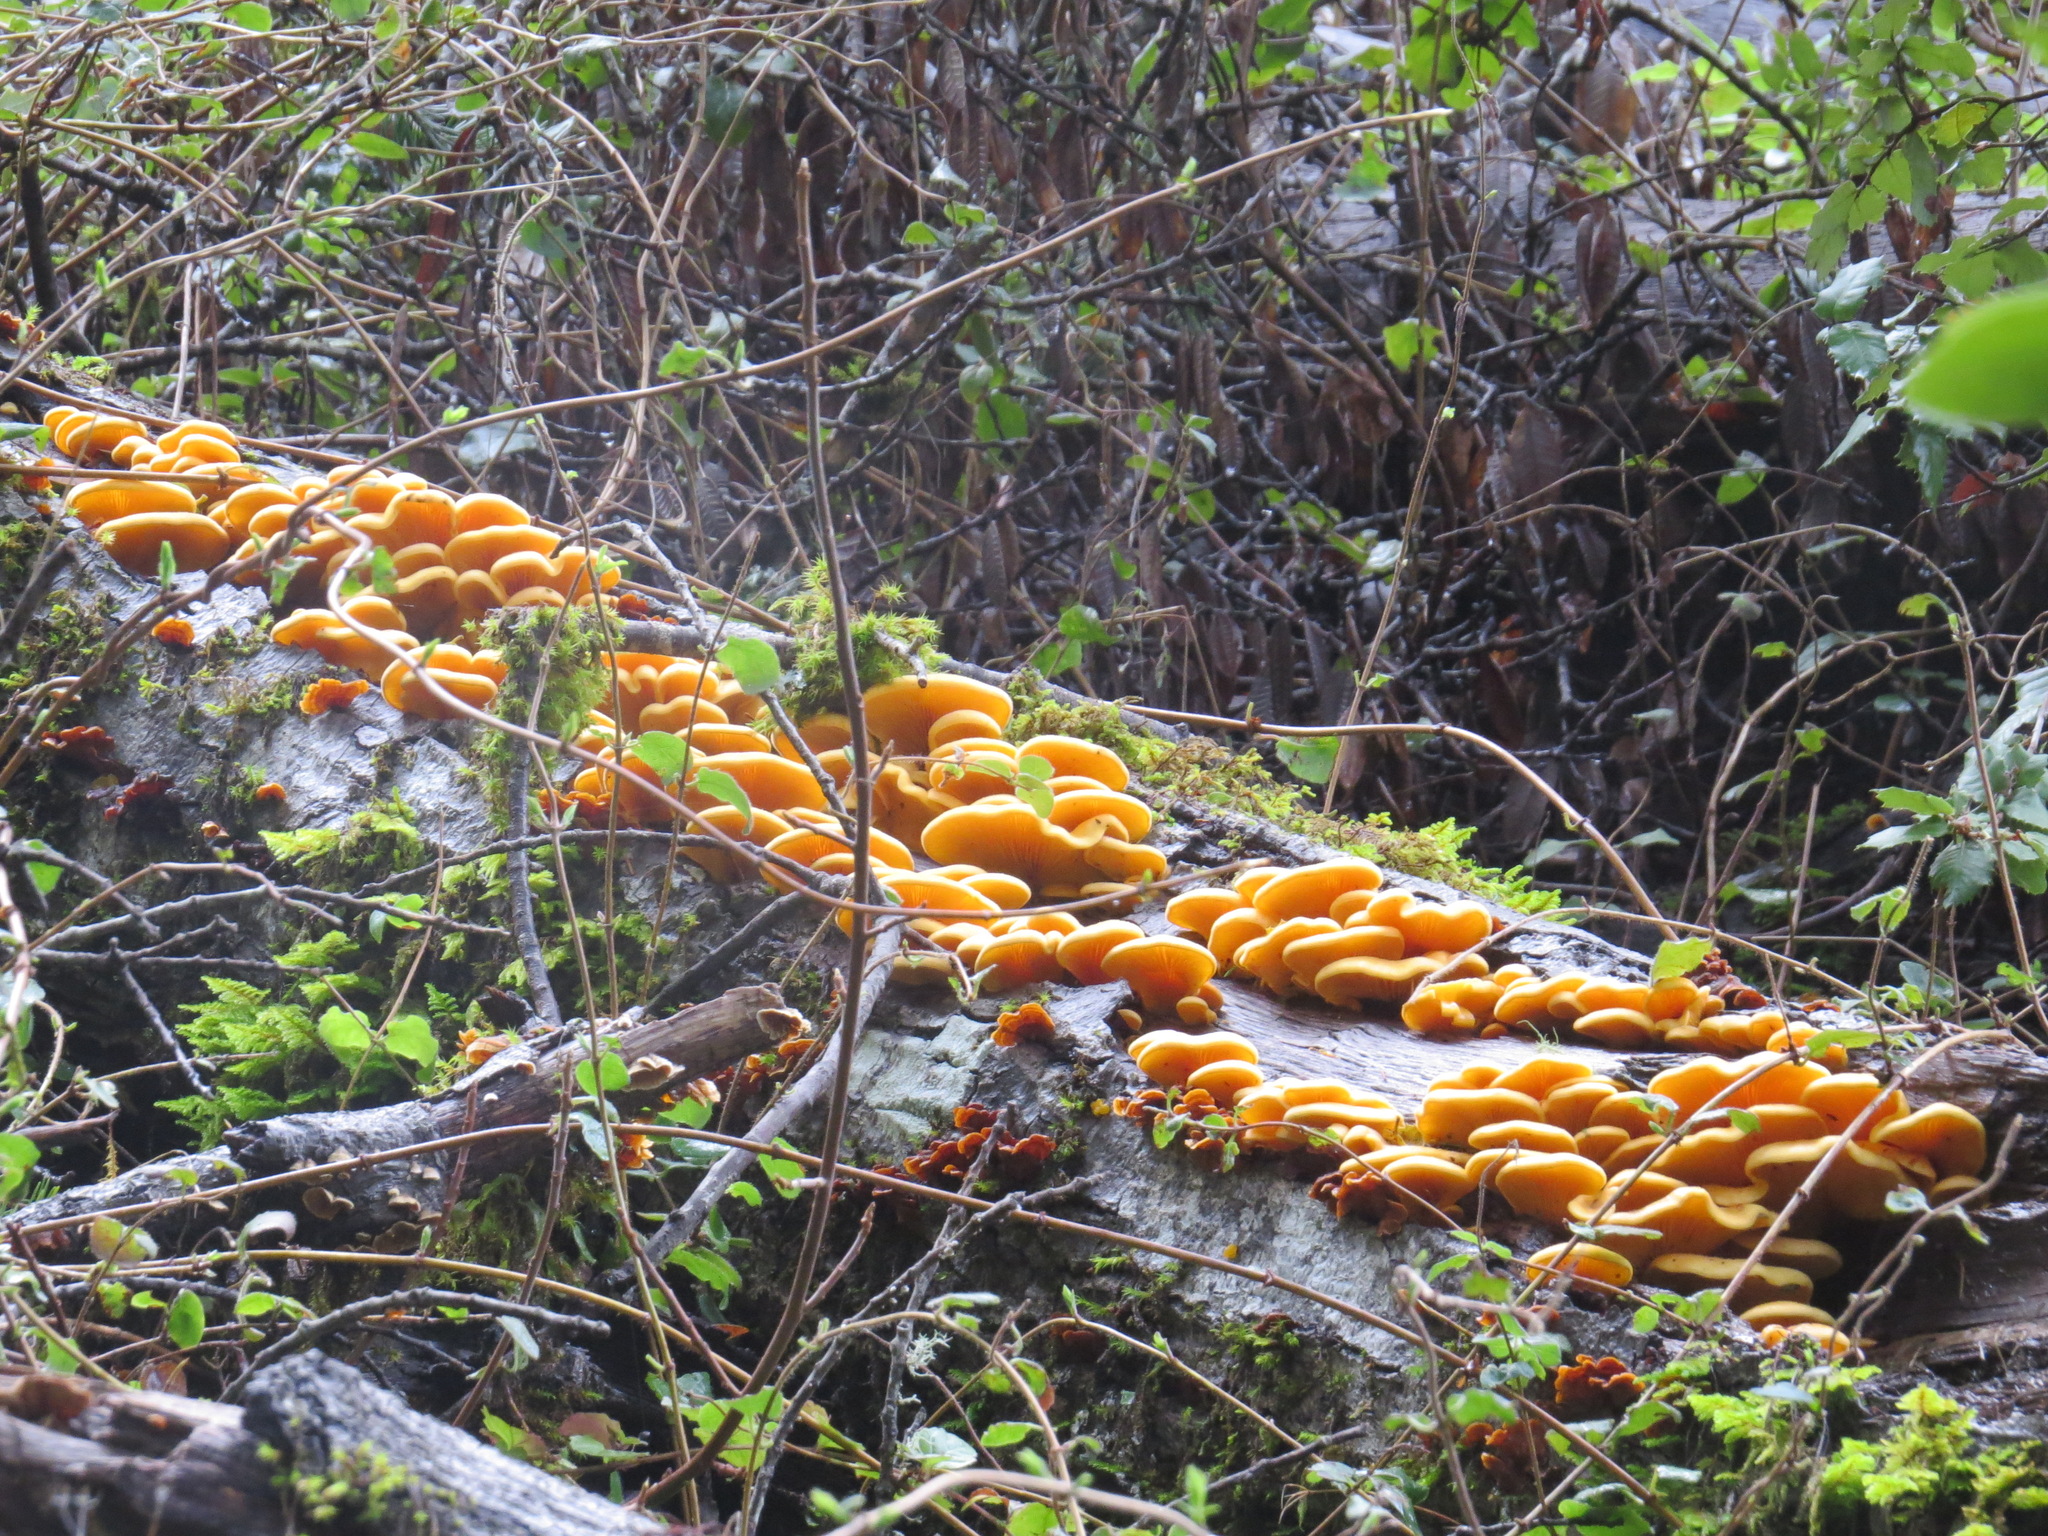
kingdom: Fungi
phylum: Basidiomycota
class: Agaricomycetes
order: Agaricales
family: Phyllotopsidaceae
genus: Phyllotopsis
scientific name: Phyllotopsis nidulans
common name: Orange mock oyster
